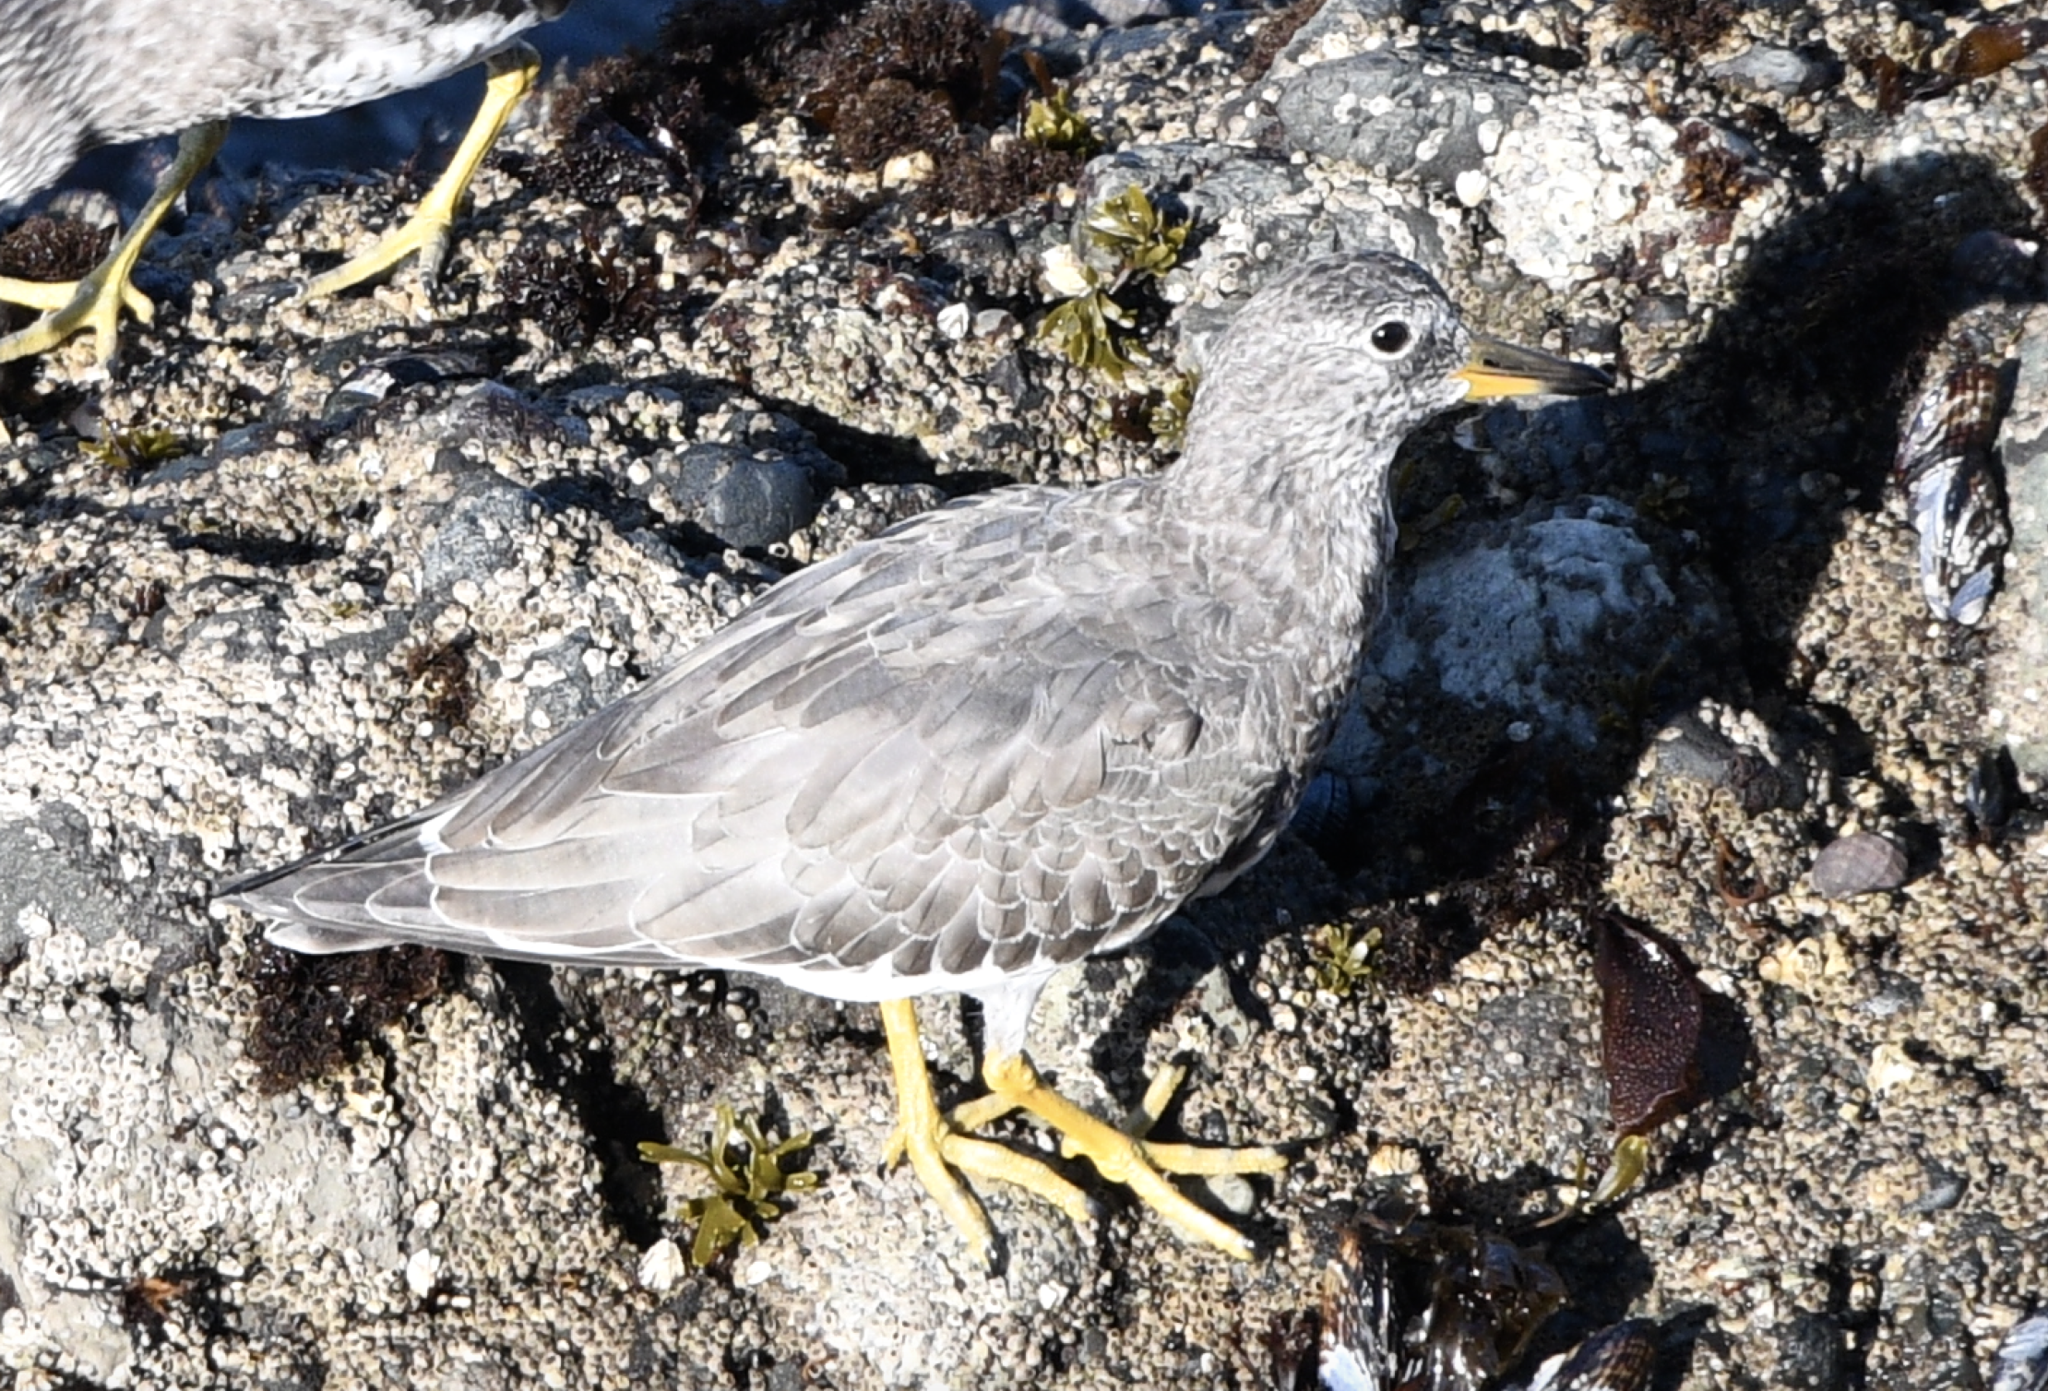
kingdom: Animalia
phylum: Chordata
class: Aves
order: Charadriiformes
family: Scolopacidae
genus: Calidris
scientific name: Calidris virgata
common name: Surfbird
